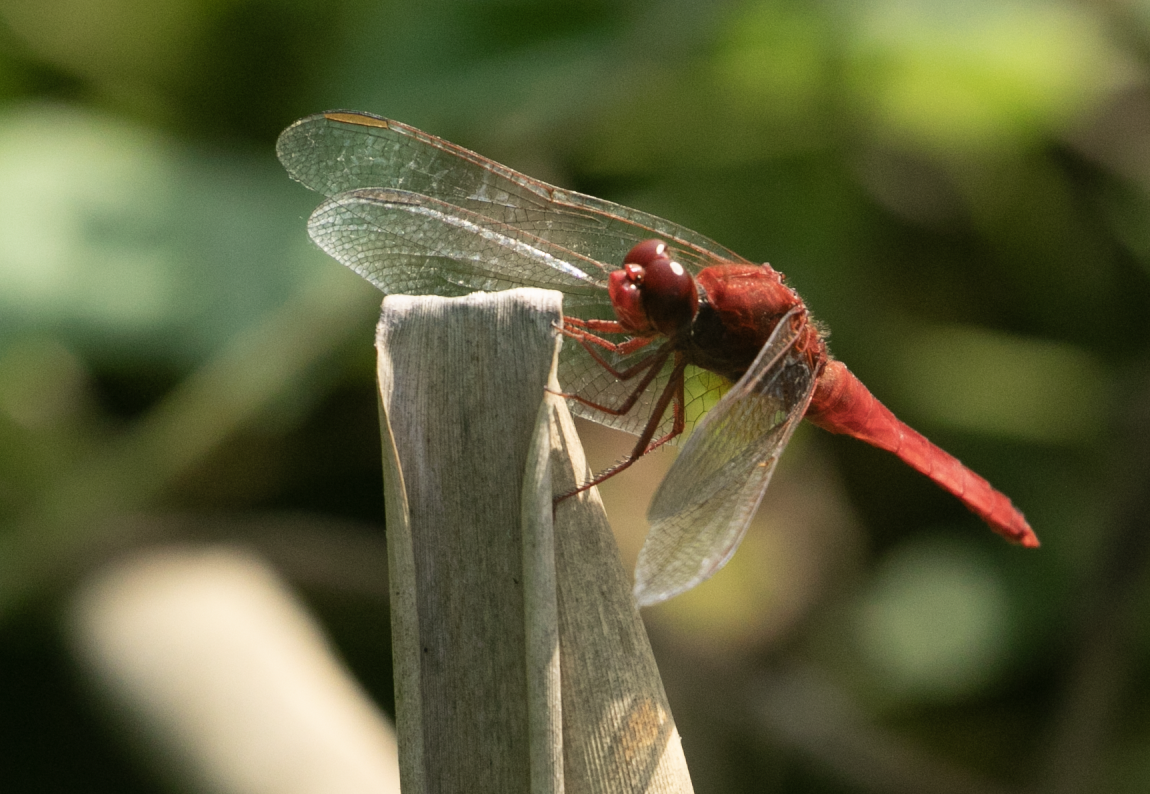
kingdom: Animalia
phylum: Arthropoda
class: Insecta
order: Odonata
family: Libellulidae
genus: Crocothemis
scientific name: Crocothemis erythraea
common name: Scarlet dragonfly
